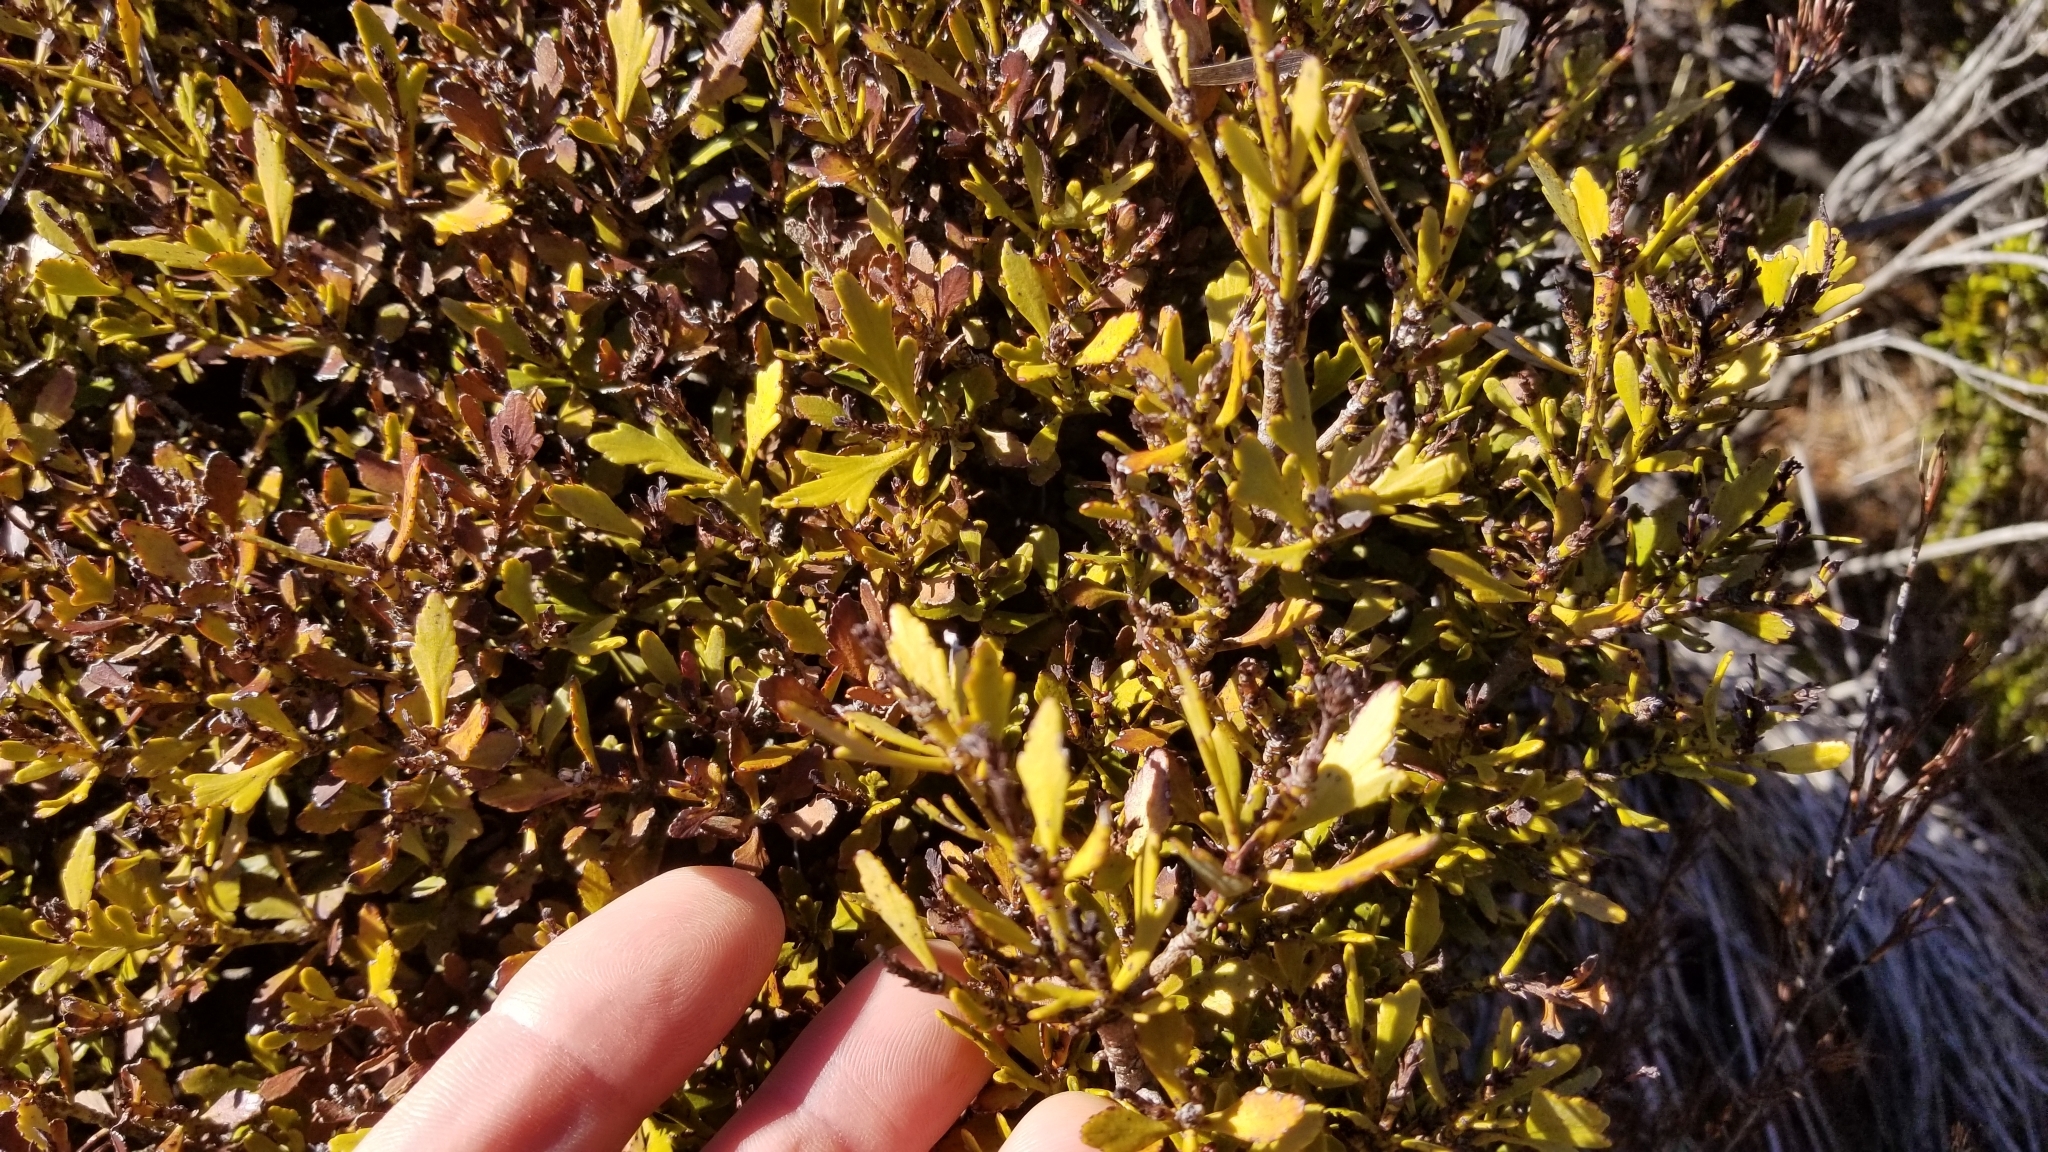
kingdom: Plantae
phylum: Tracheophyta
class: Pinopsida
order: Pinales
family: Phyllocladaceae
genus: Phyllocladus
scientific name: Phyllocladus trichomanoides
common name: Celery pine
